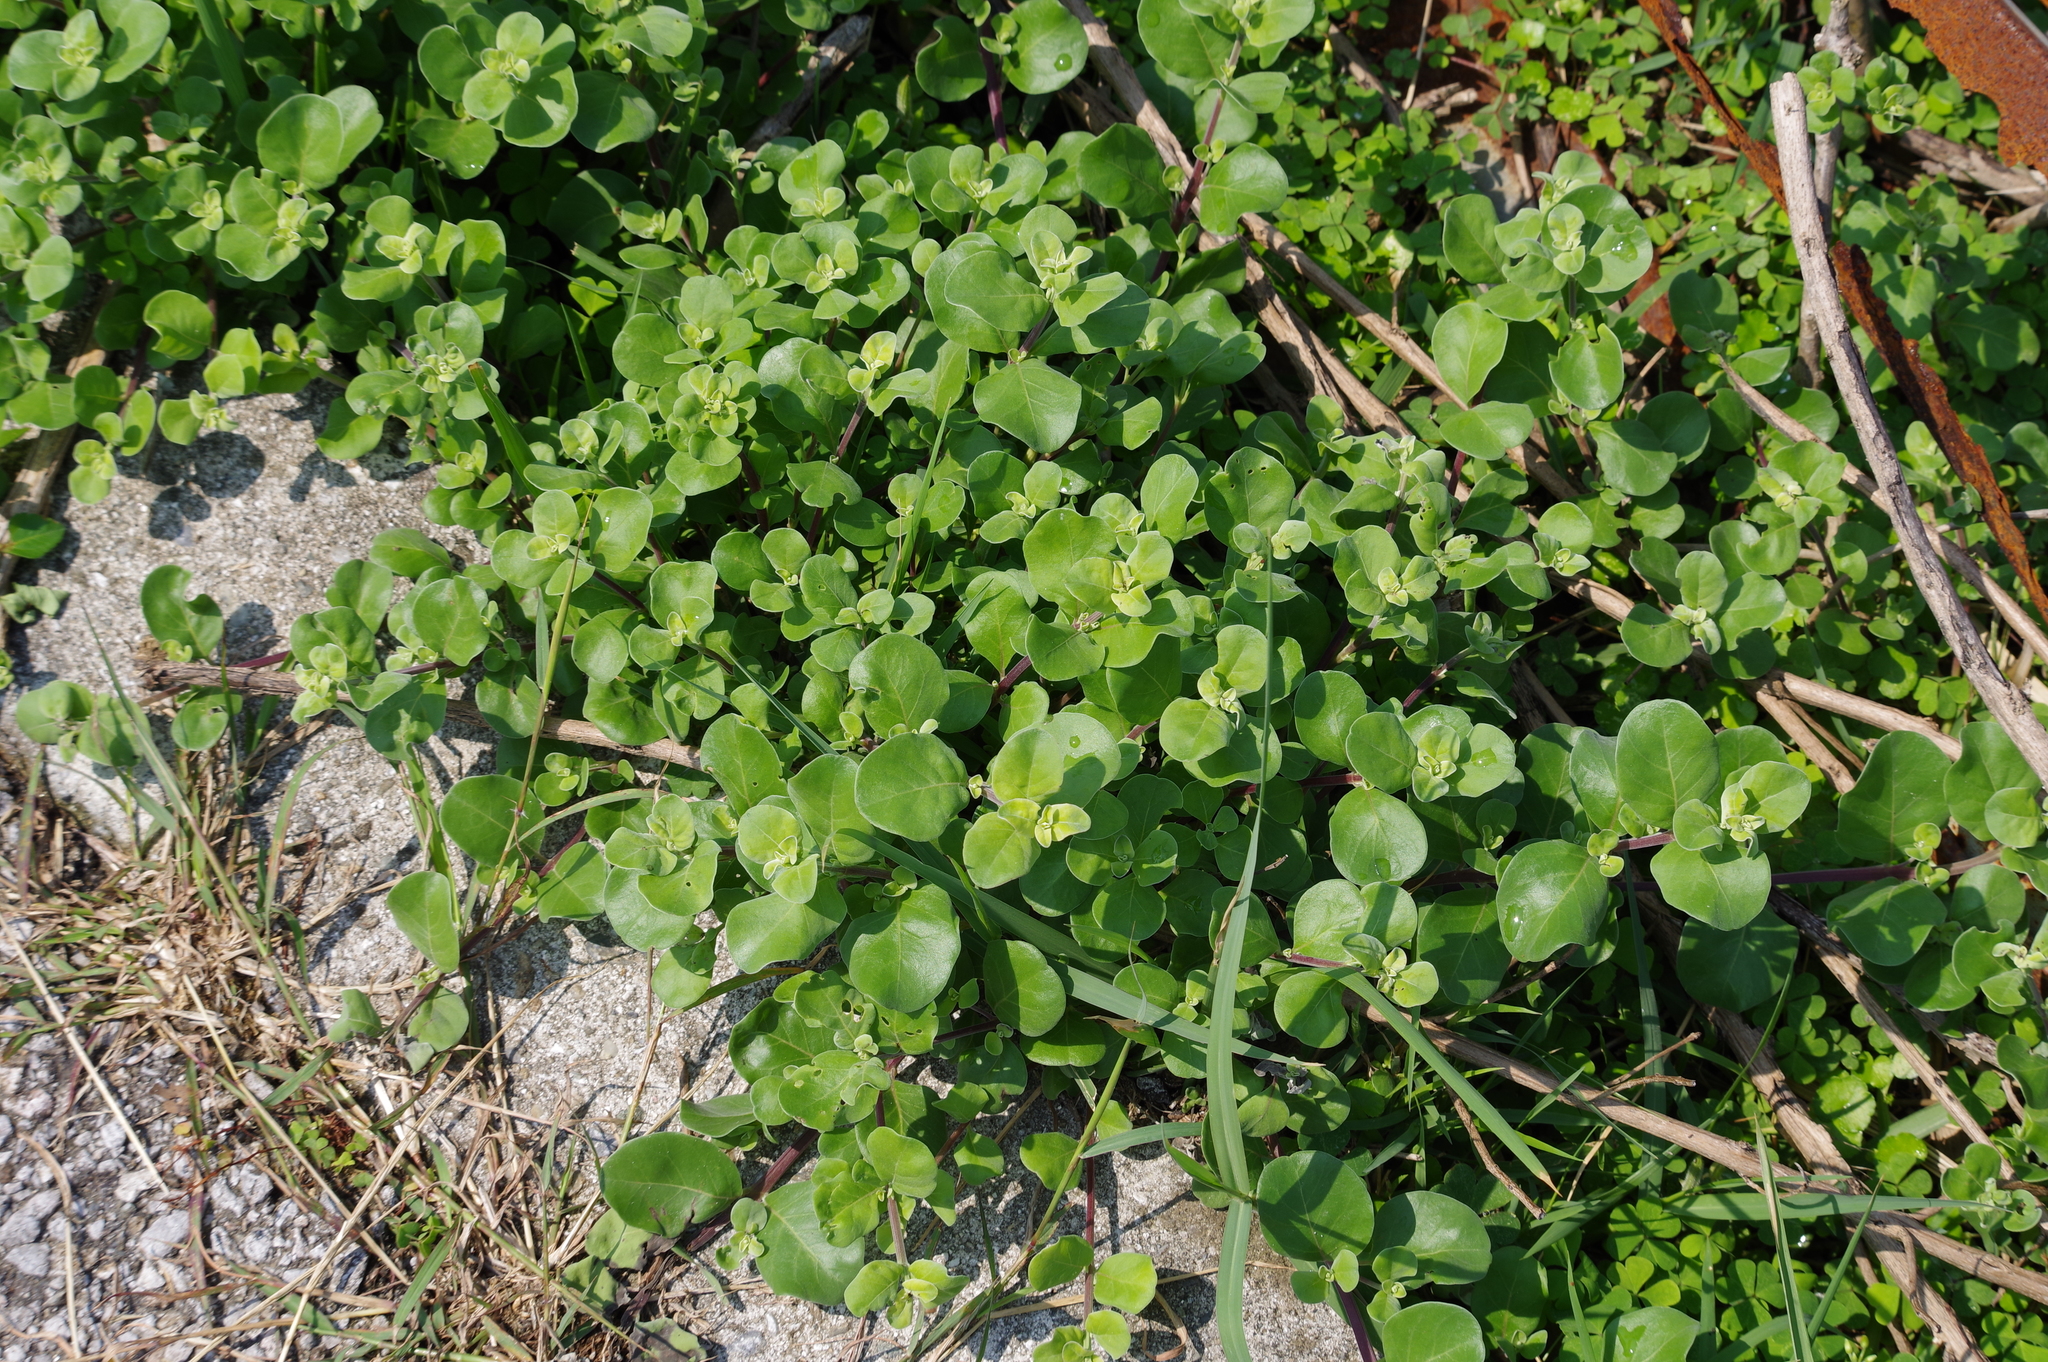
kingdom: Plantae
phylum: Tracheophyta
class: Magnoliopsida
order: Lamiales
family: Lamiaceae
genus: Vitex
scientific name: Vitex rotundifolia
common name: Beach vitex
